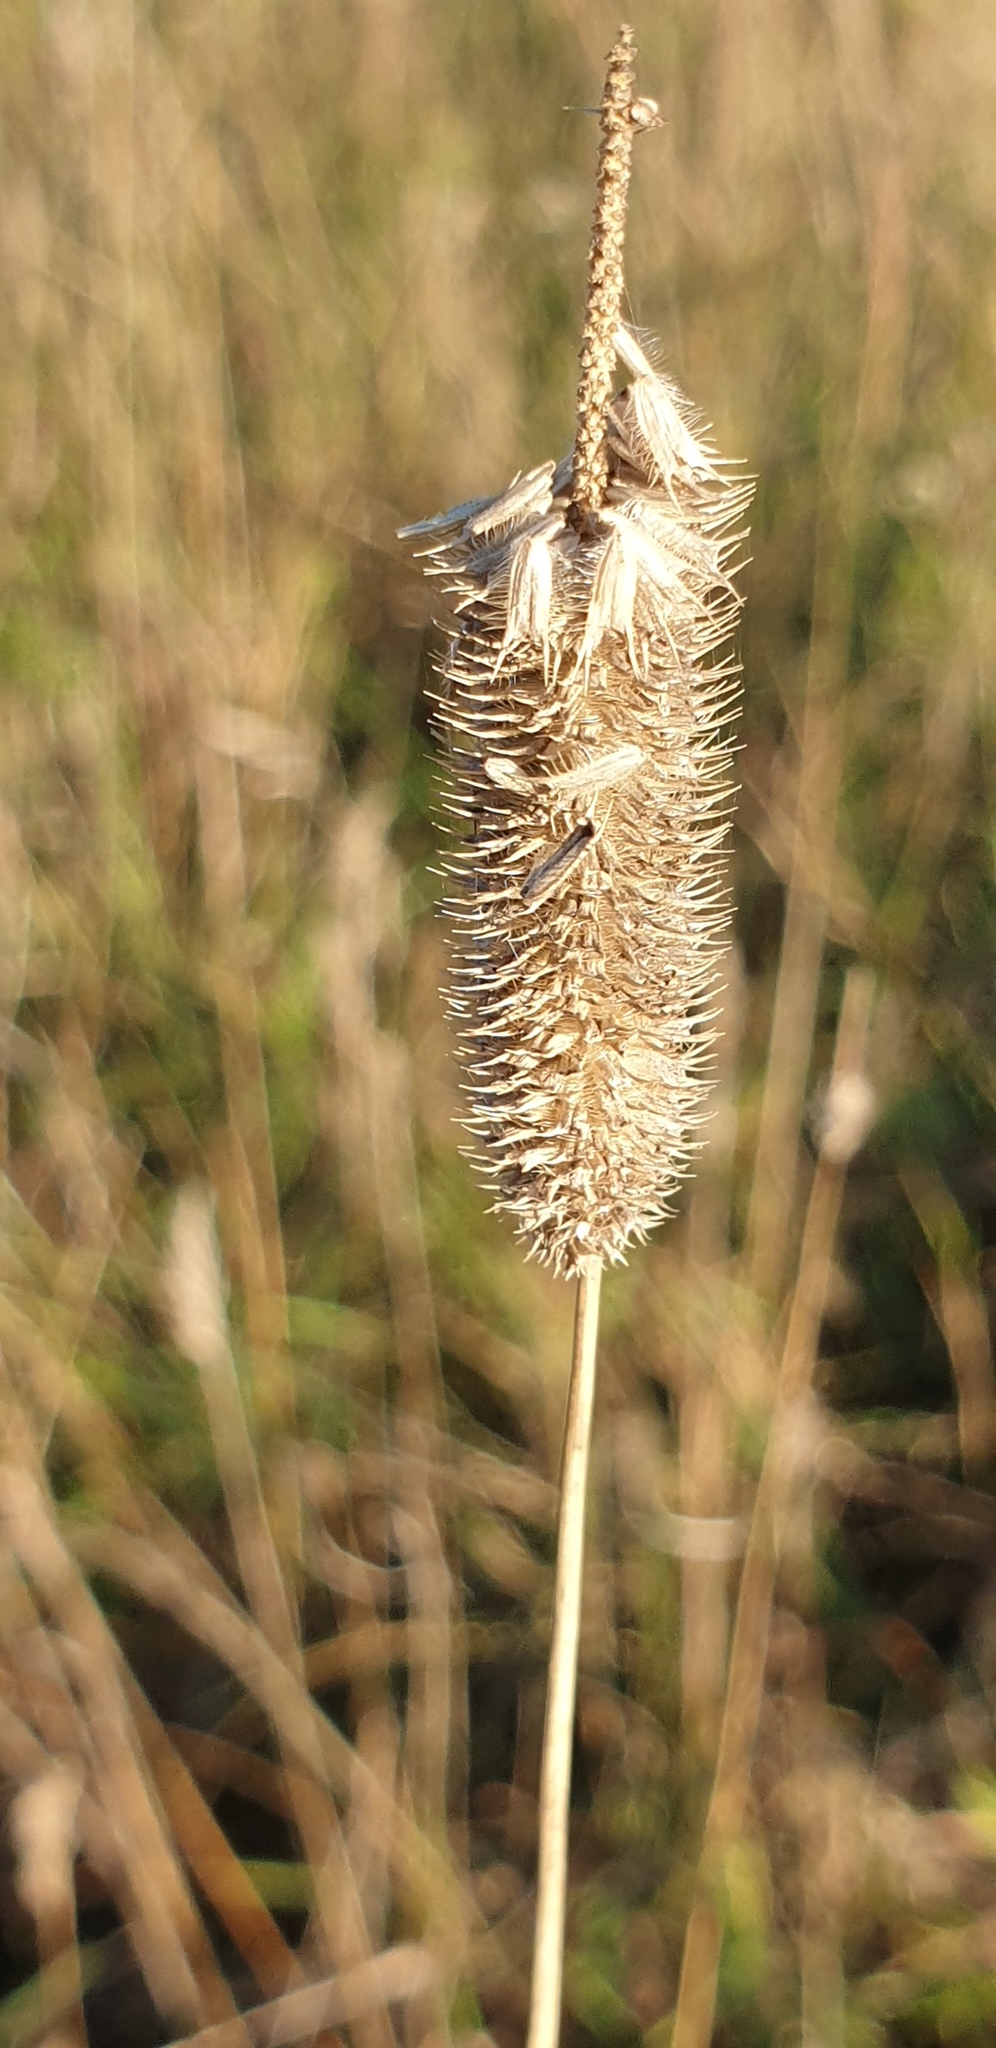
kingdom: Plantae
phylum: Tracheophyta
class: Liliopsida
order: Poales
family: Poaceae
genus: Phleum
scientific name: Phleum pratense
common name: Timothy grass
